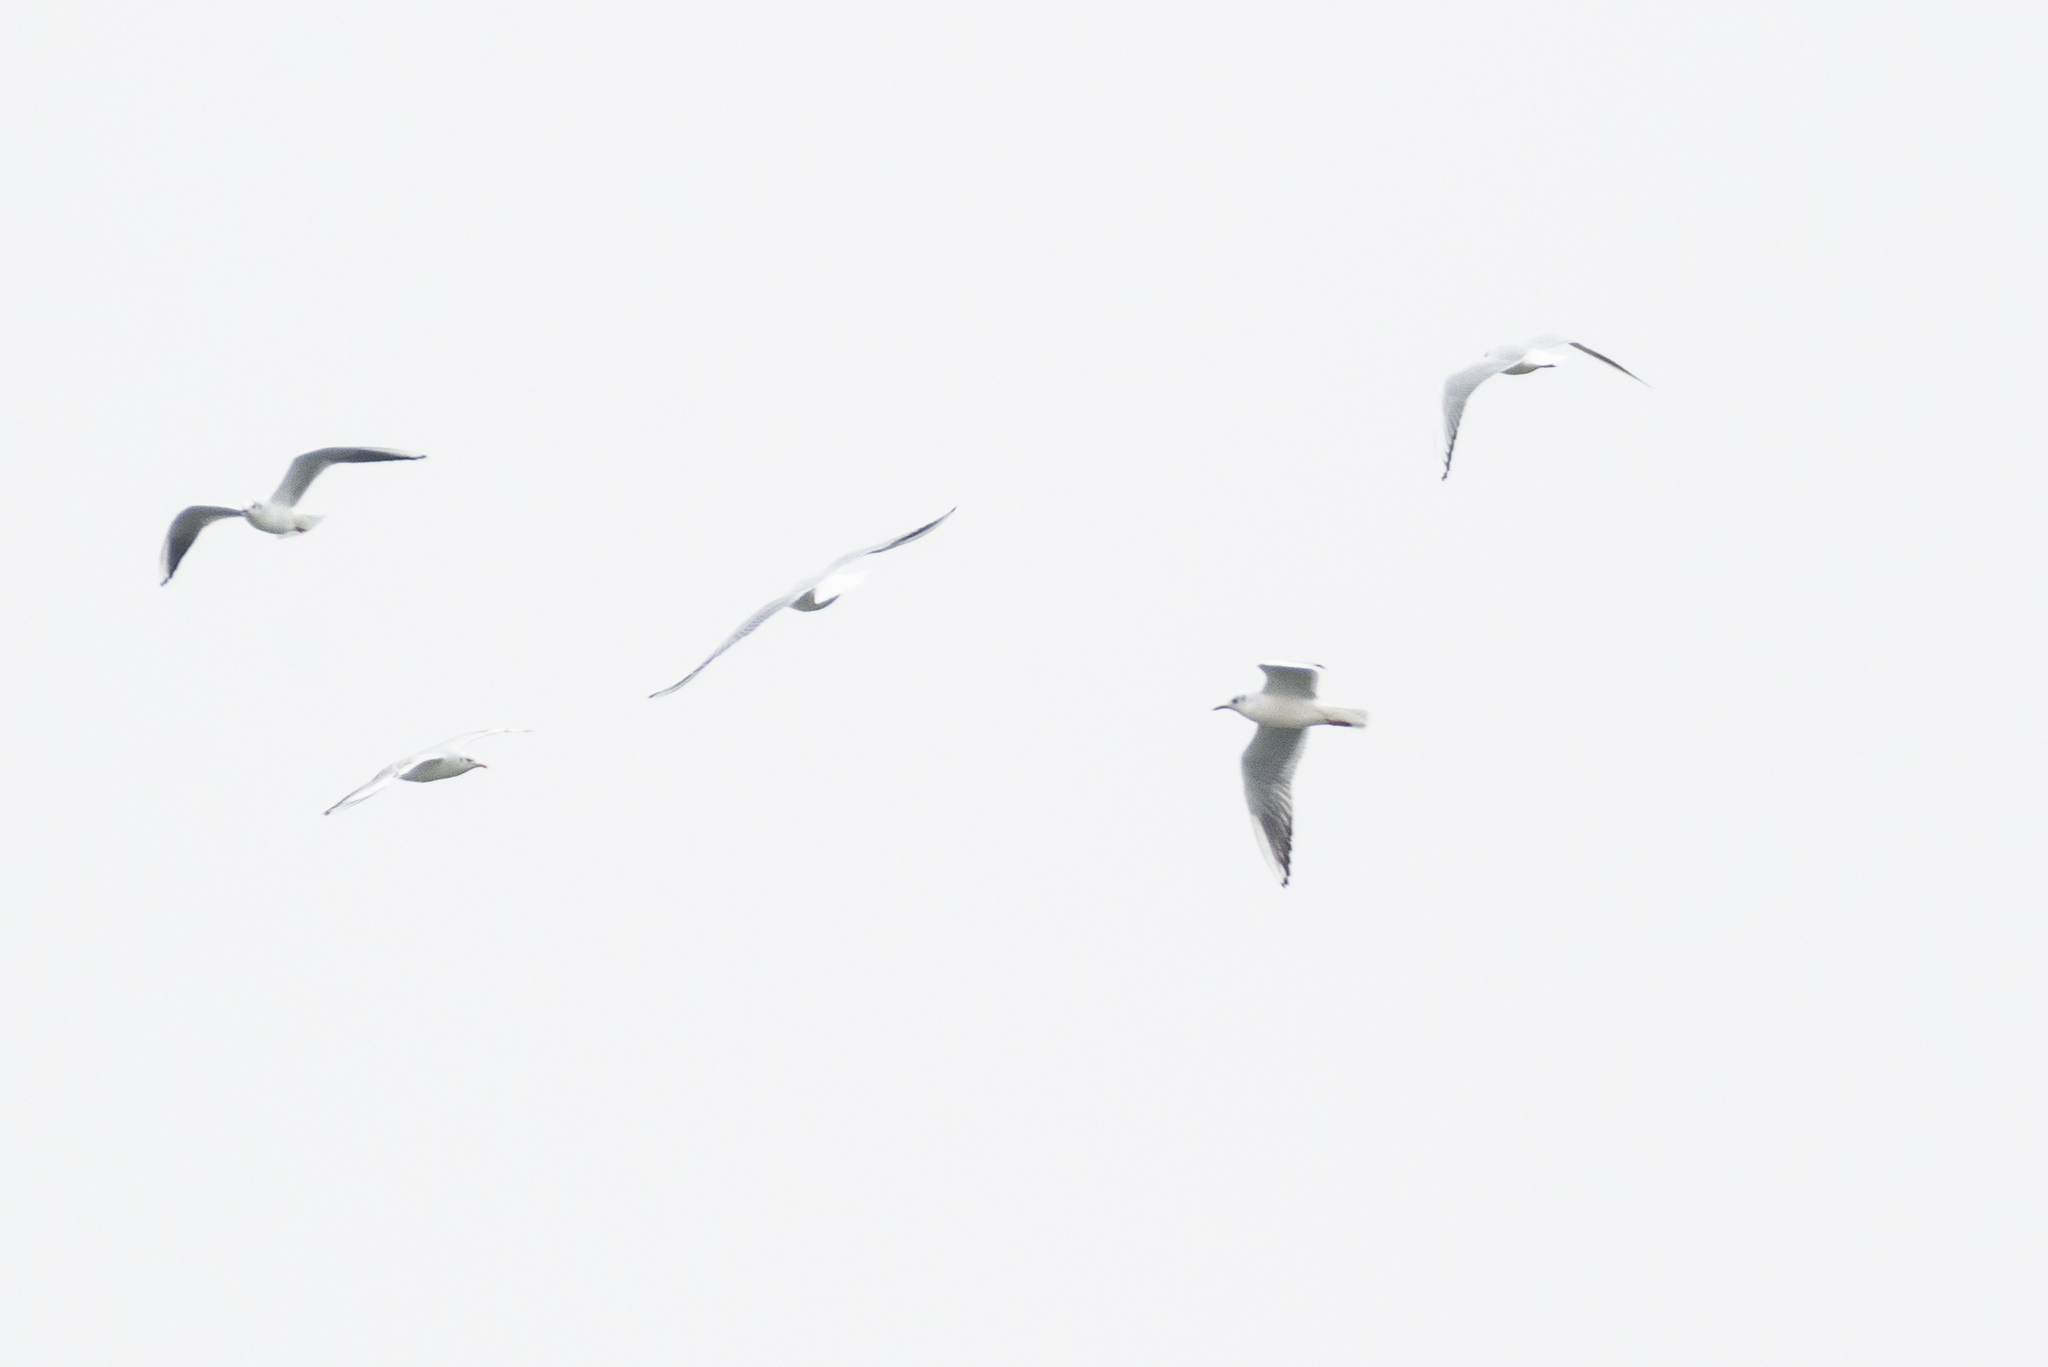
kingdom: Animalia
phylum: Chordata
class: Aves
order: Charadriiformes
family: Laridae
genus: Chroicocephalus
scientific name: Chroicocephalus ridibundus
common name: Black-headed gull
